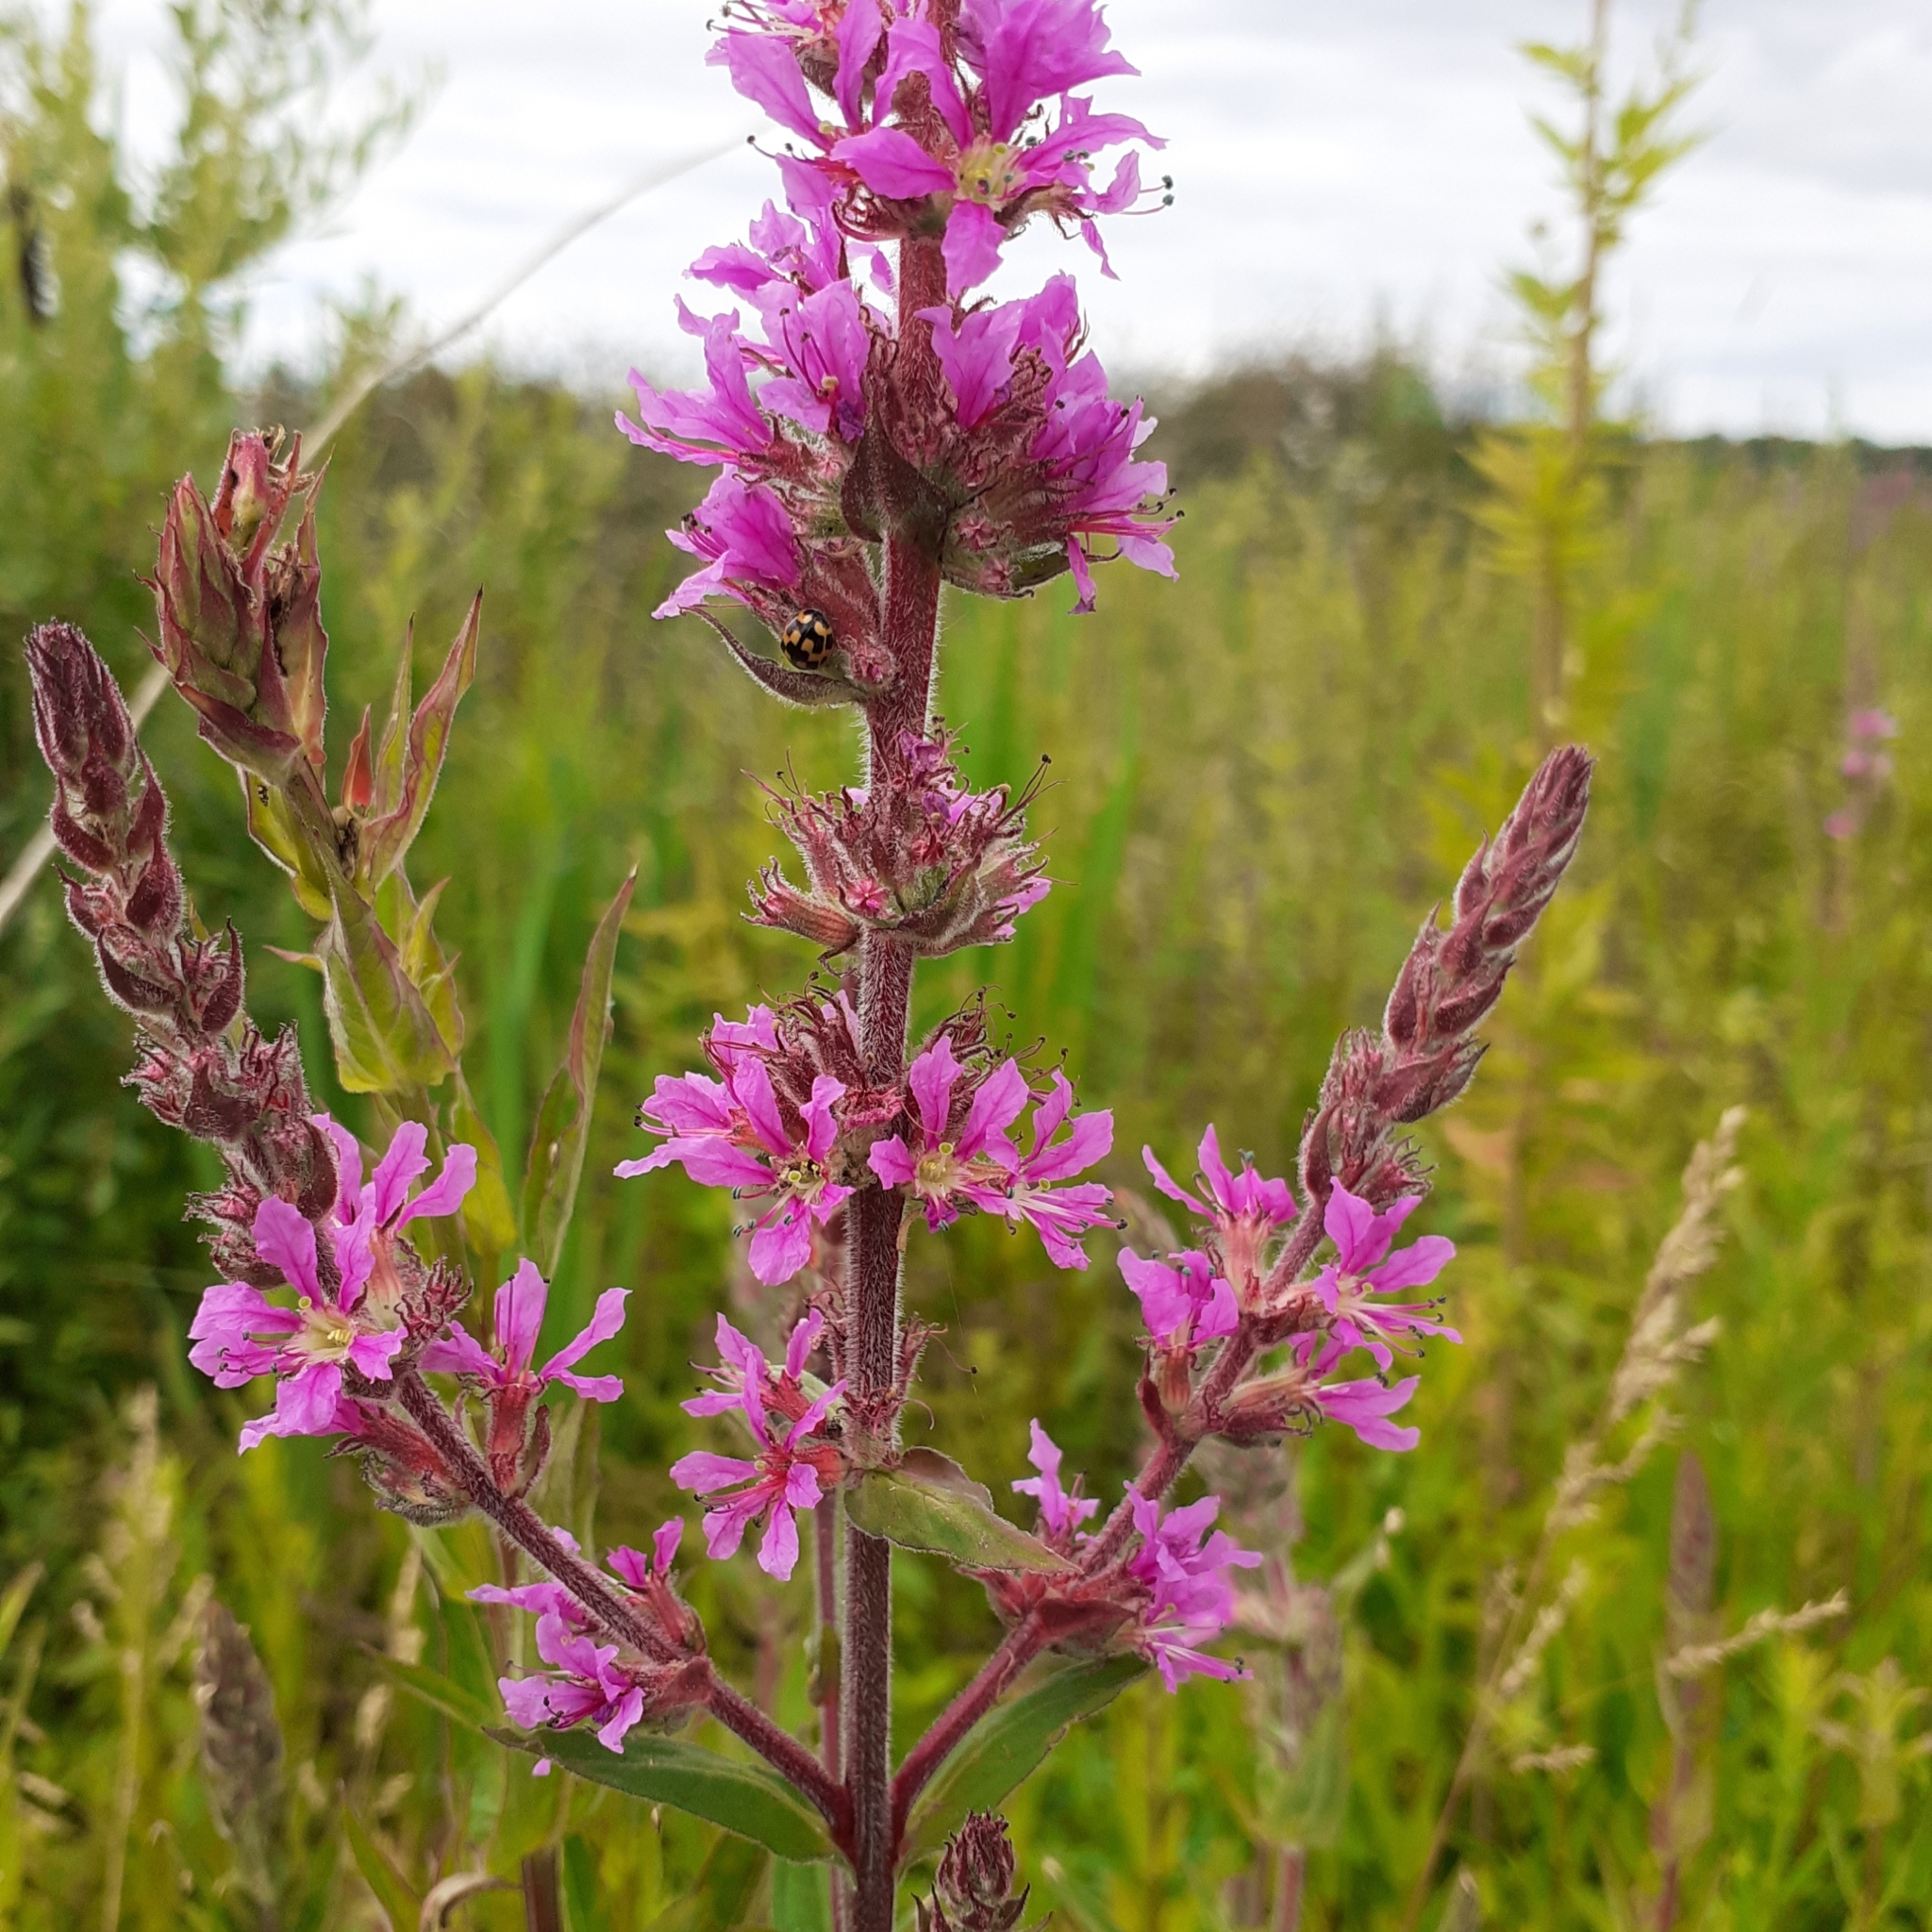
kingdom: Plantae
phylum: Tracheophyta
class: Magnoliopsida
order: Myrtales
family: Lythraceae
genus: Lythrum
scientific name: Lythrum salicaria
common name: Purple loosestrife
